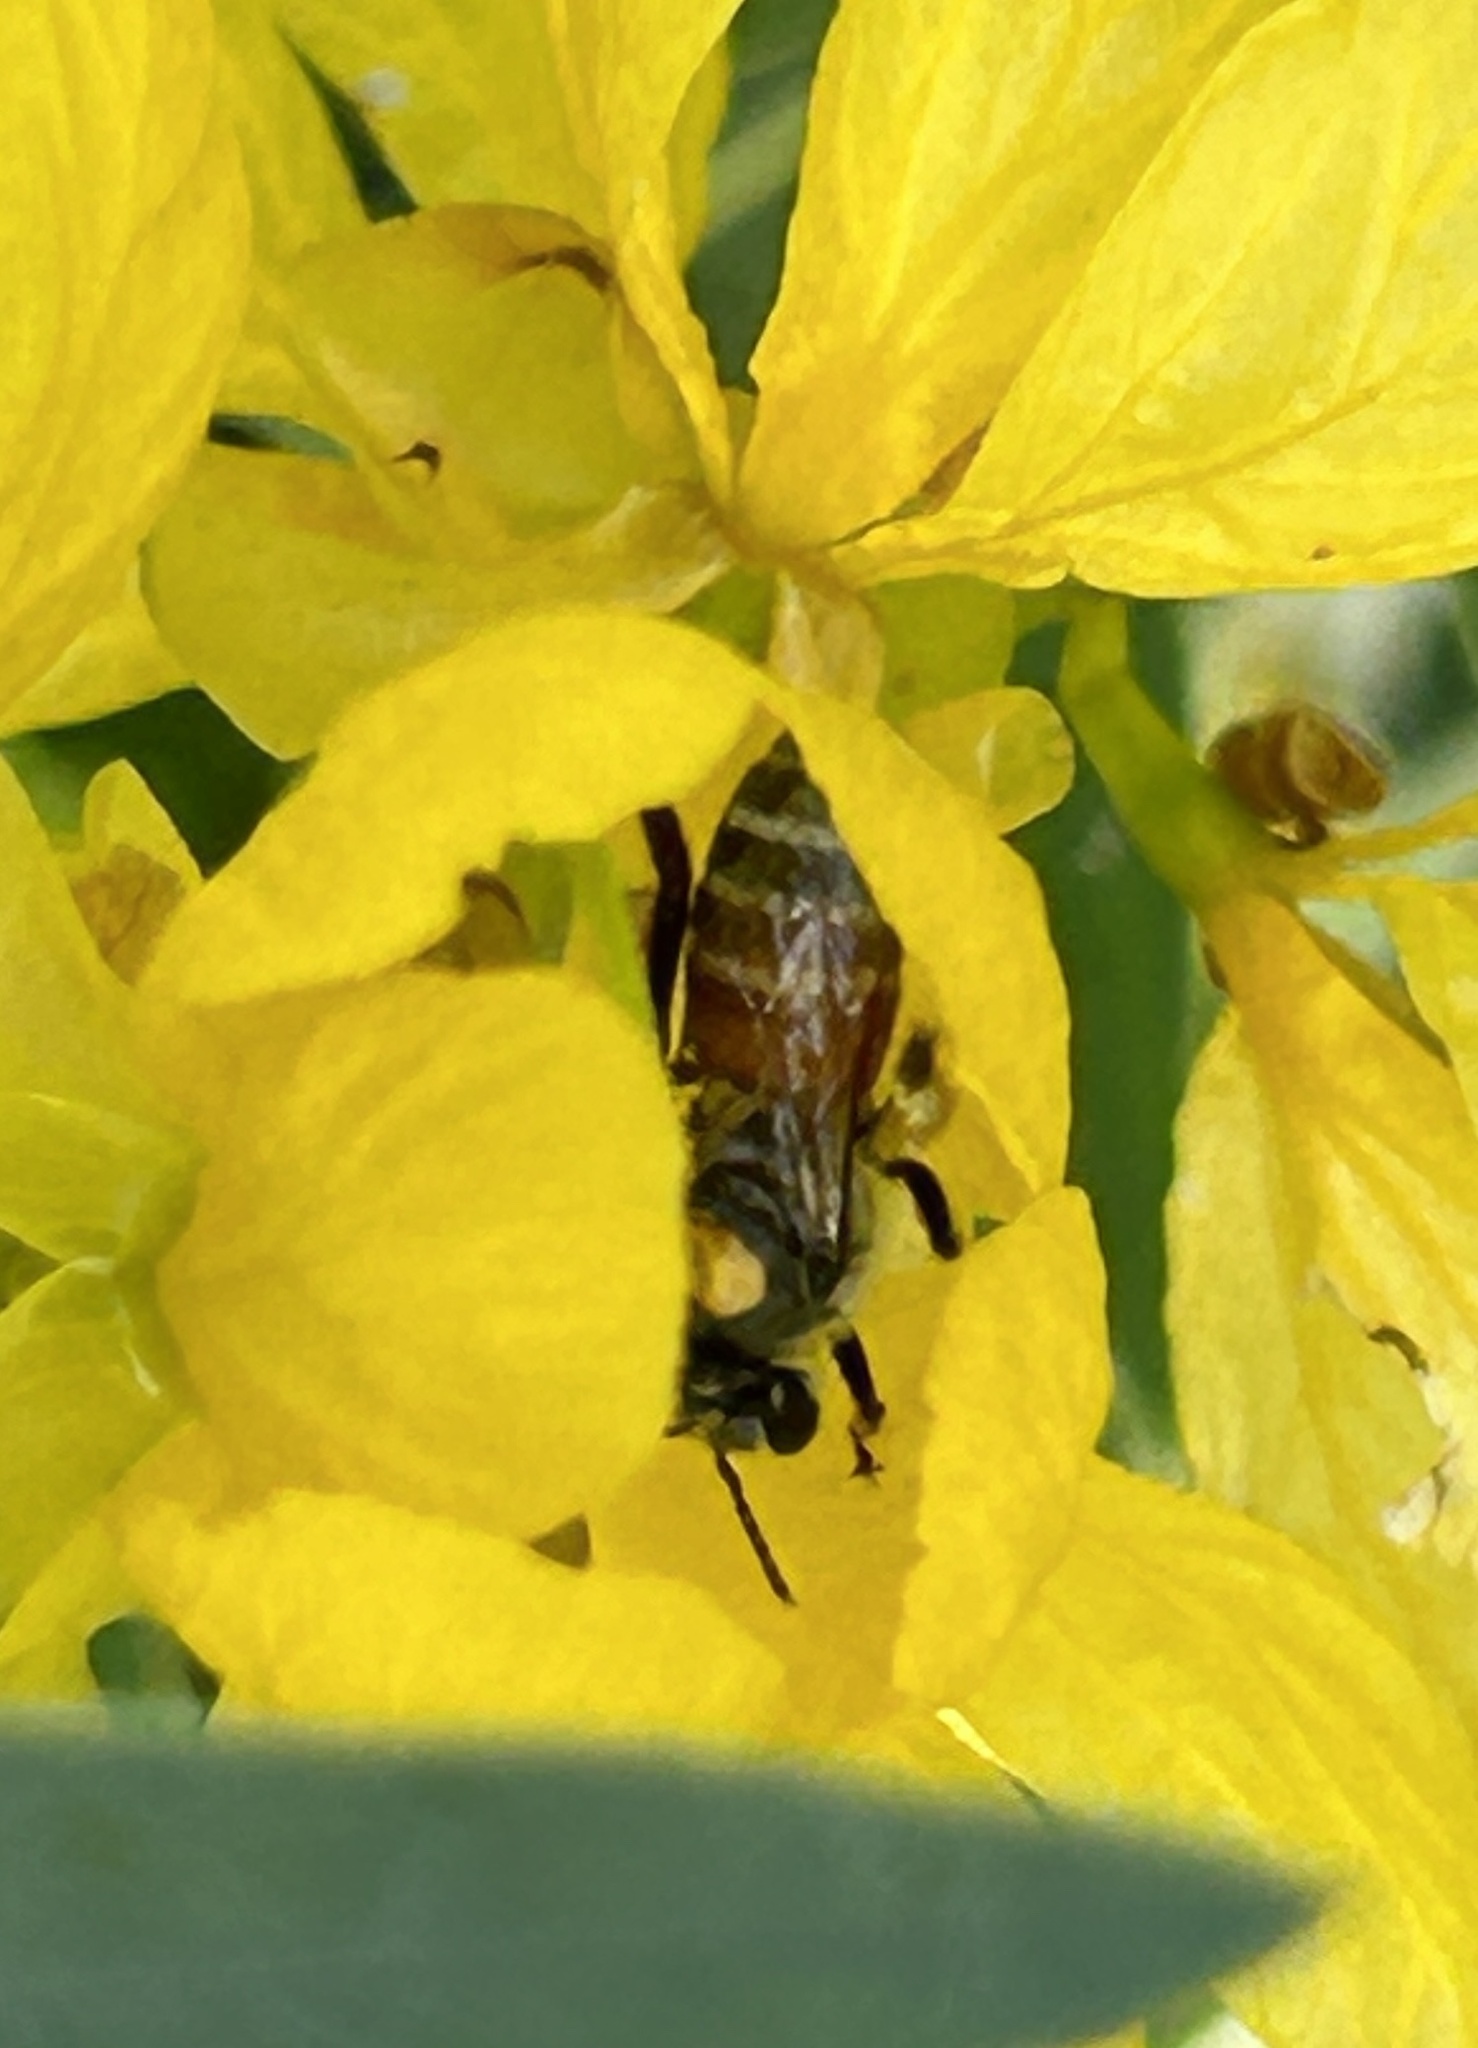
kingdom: Animalia
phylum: Arthropoda
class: Insecta
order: Hymenoptera
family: Apidae
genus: Apis
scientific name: Apis florea
